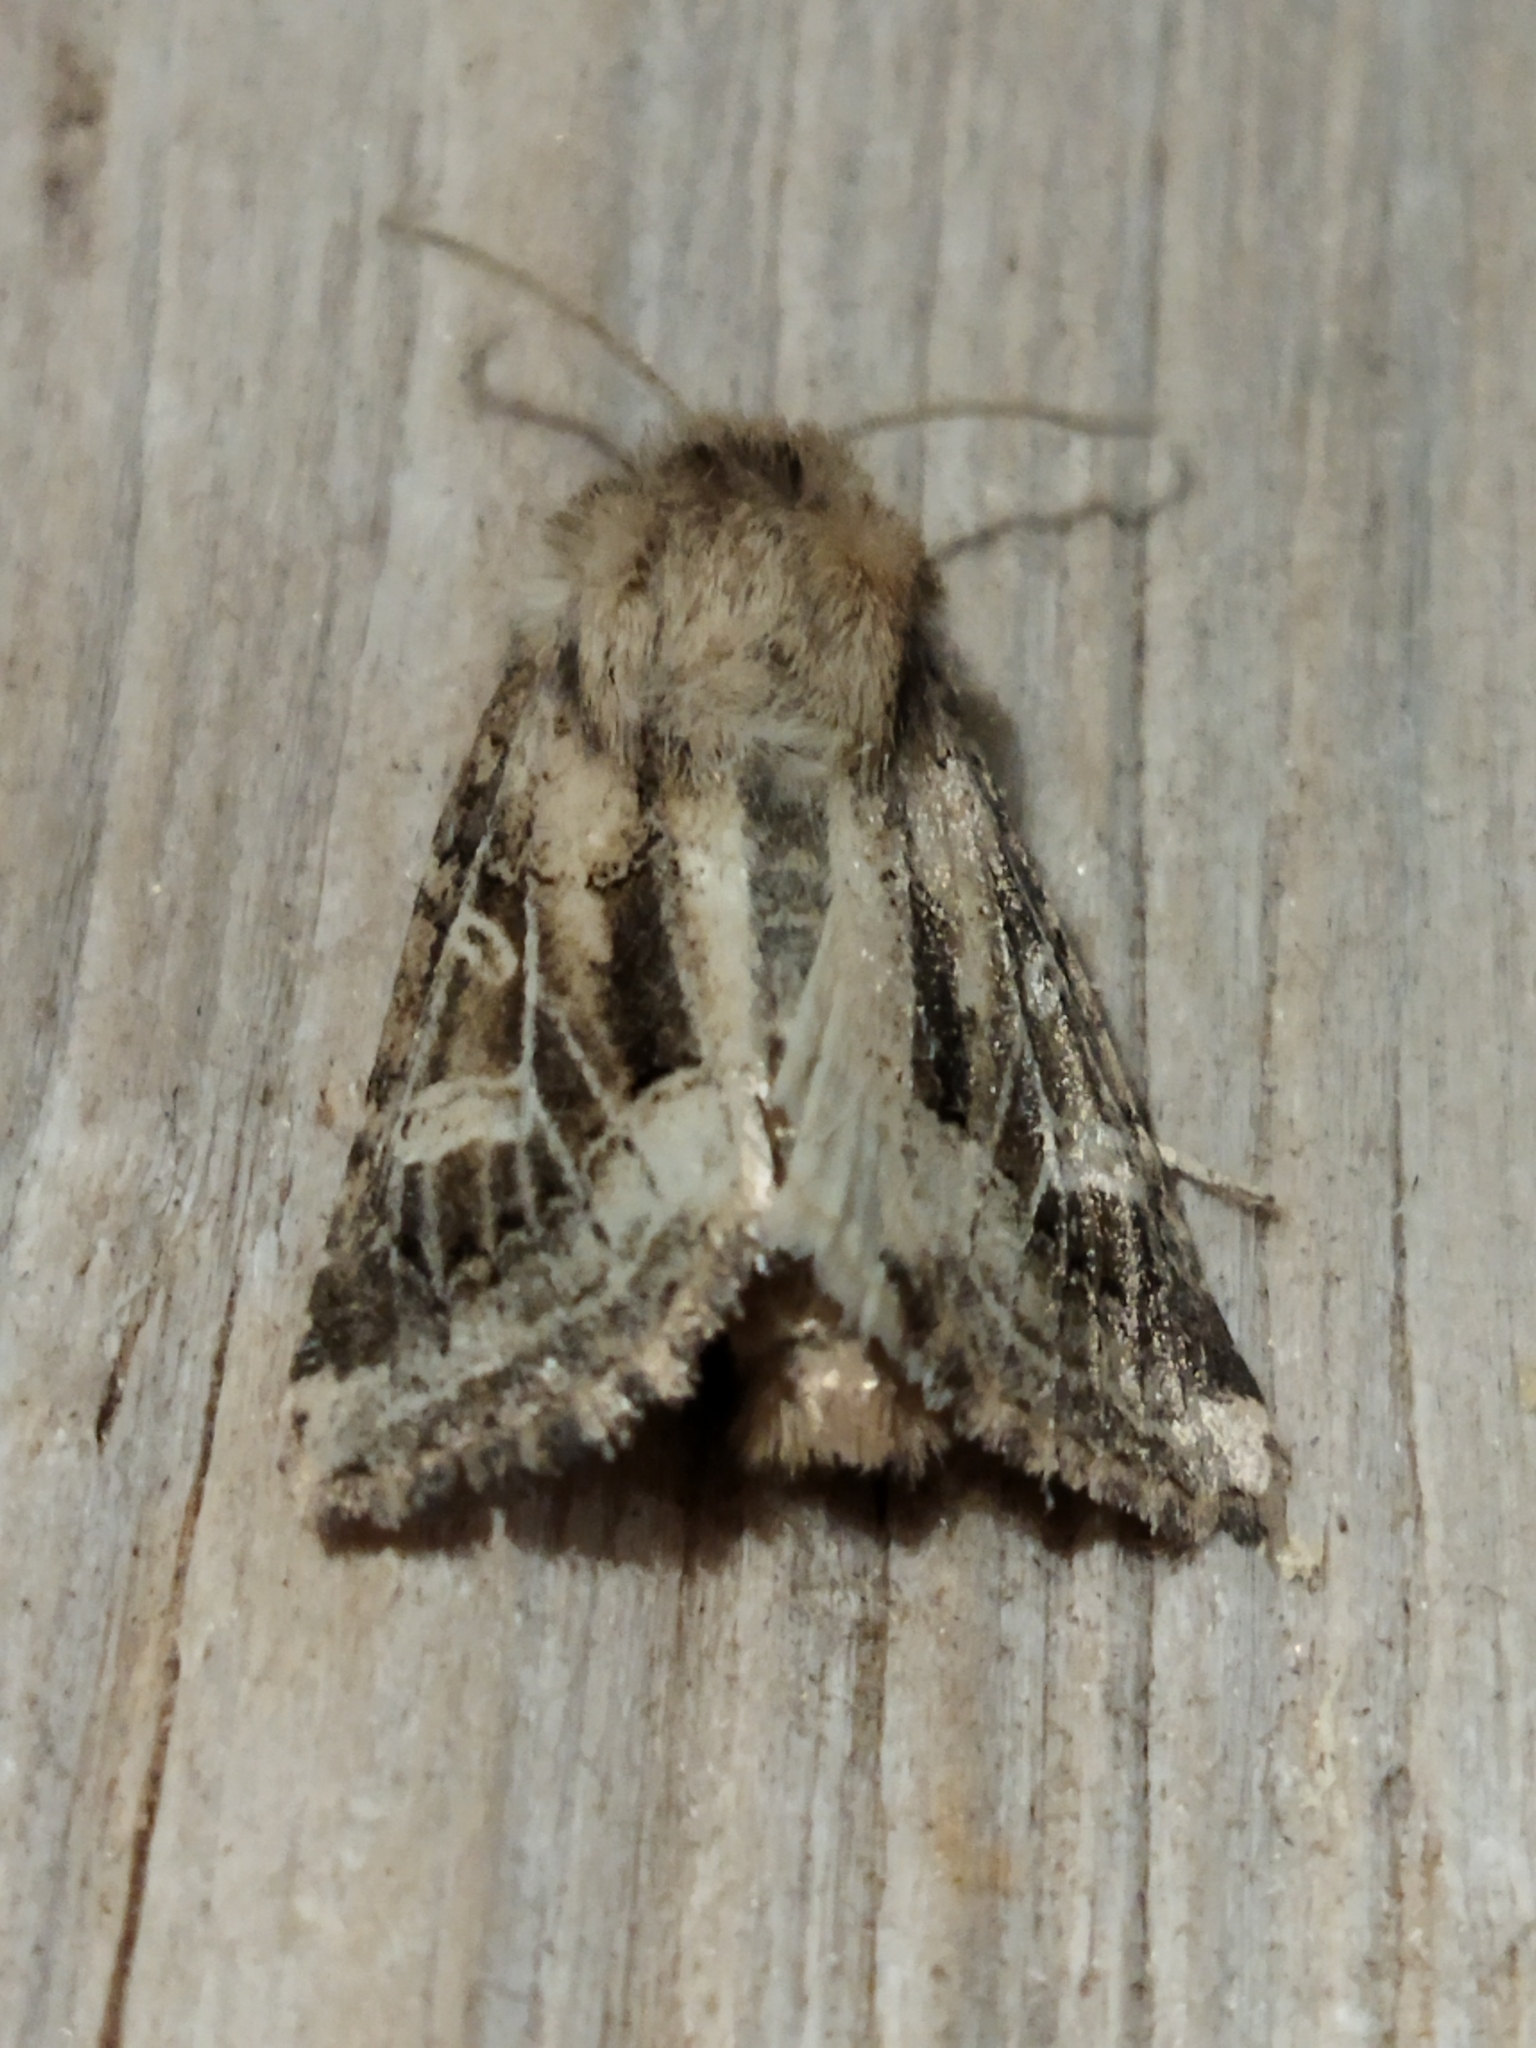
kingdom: Animalia
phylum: Arthropoda
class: Insecta
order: Lepidoptera
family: Noctuidae
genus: Luperina
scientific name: Luperina dumerilii
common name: Dumeril's rustic
